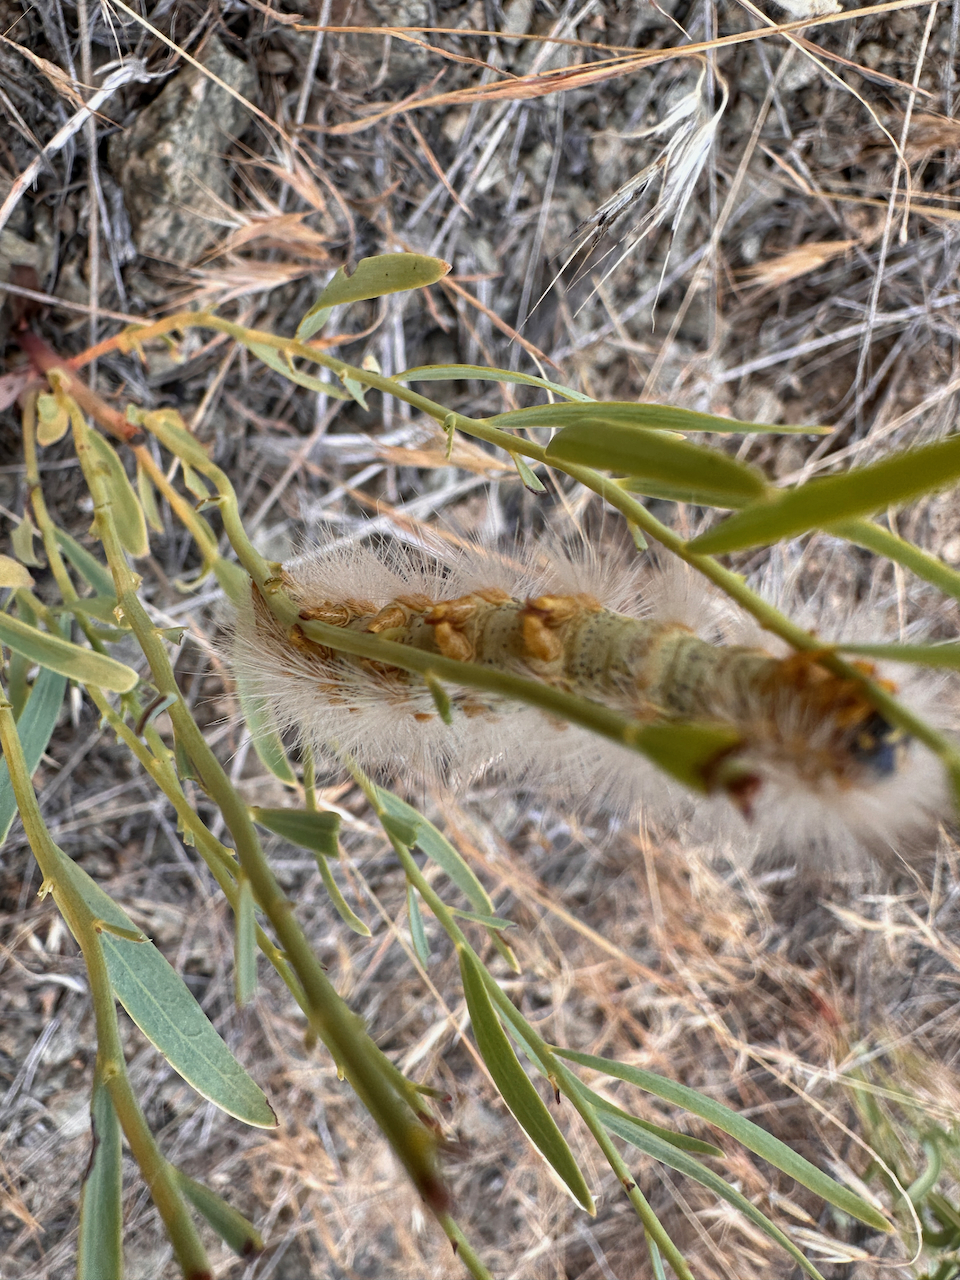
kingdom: Animalia
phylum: Arthropoda
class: Insecta
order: Lepidoptera
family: Erebidae
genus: Estigmene
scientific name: Estigmene acrea
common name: Salt marsh moth
